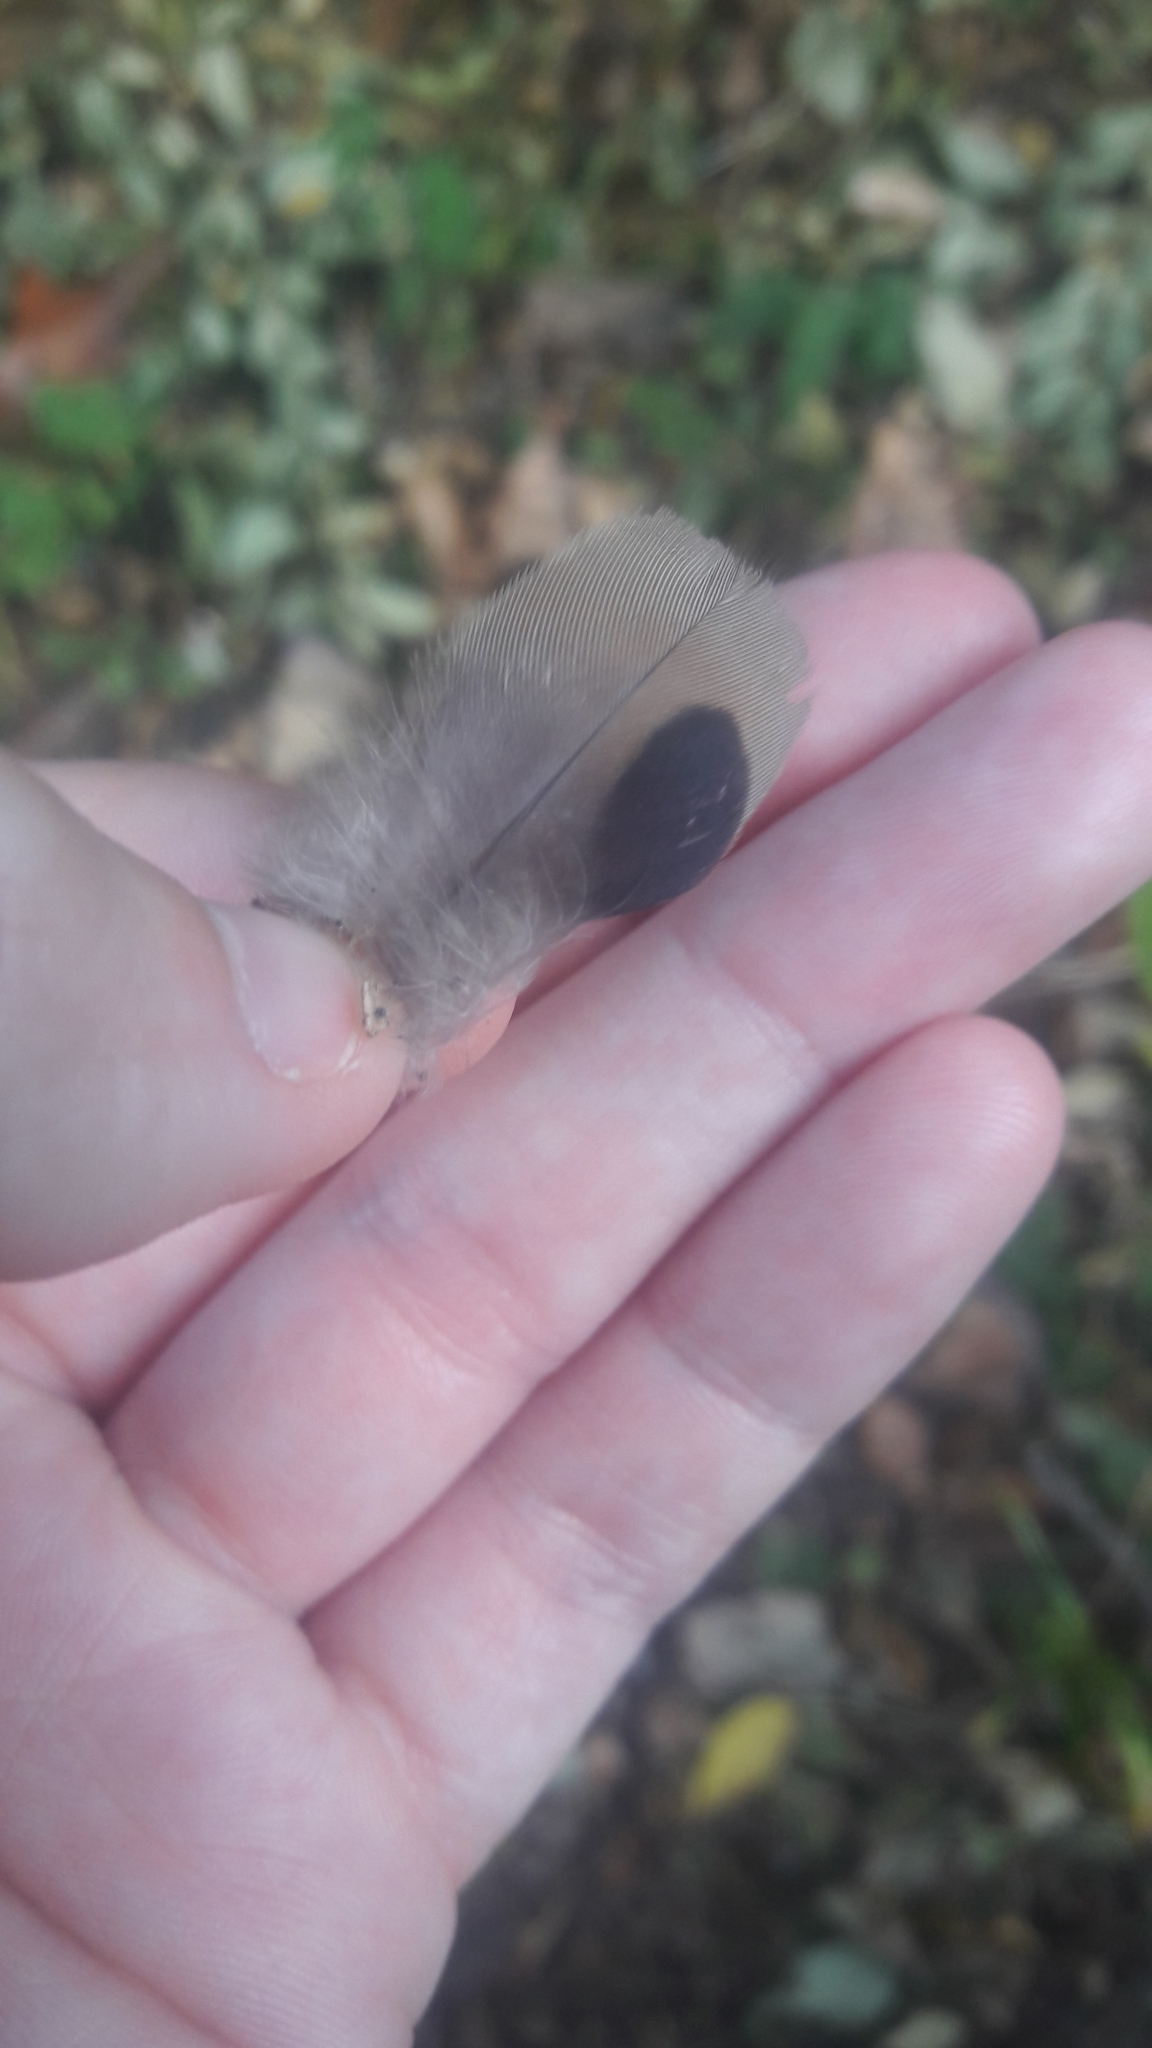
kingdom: Animalia
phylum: Chordata
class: Aves
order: Columbiformes
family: Columbidae
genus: Zenaida
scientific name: Zenaida macroura
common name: Mourning dove
